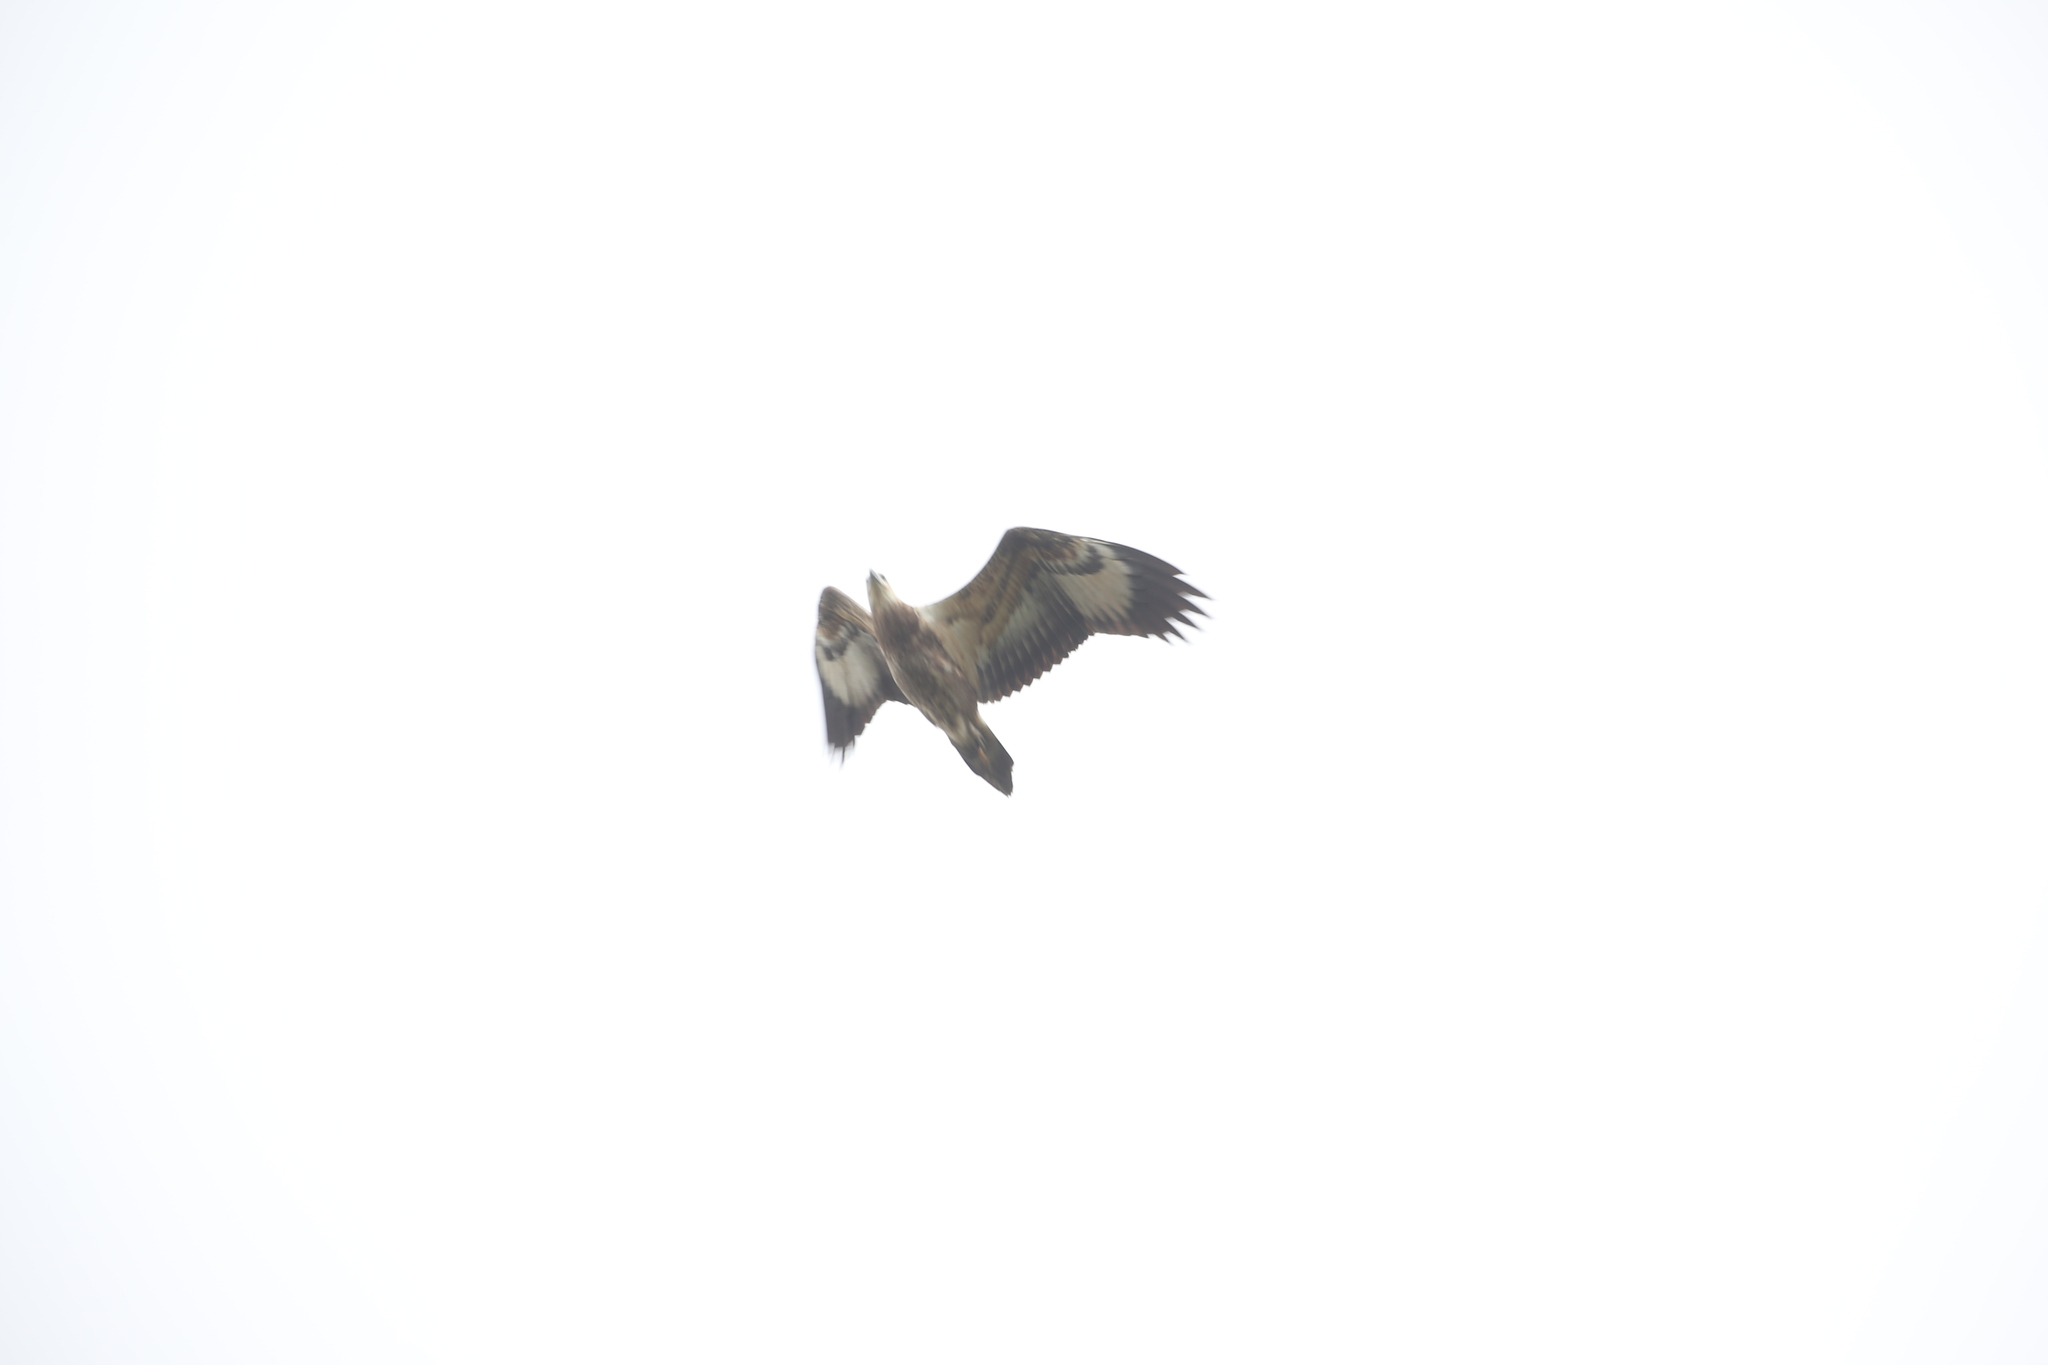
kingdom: Animalia
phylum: Chordata
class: Aves
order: Accipitriformes
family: Accipitridae
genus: Haliaeetus
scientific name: Haliaeetus leucogaster
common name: White-bellied sea eagle
